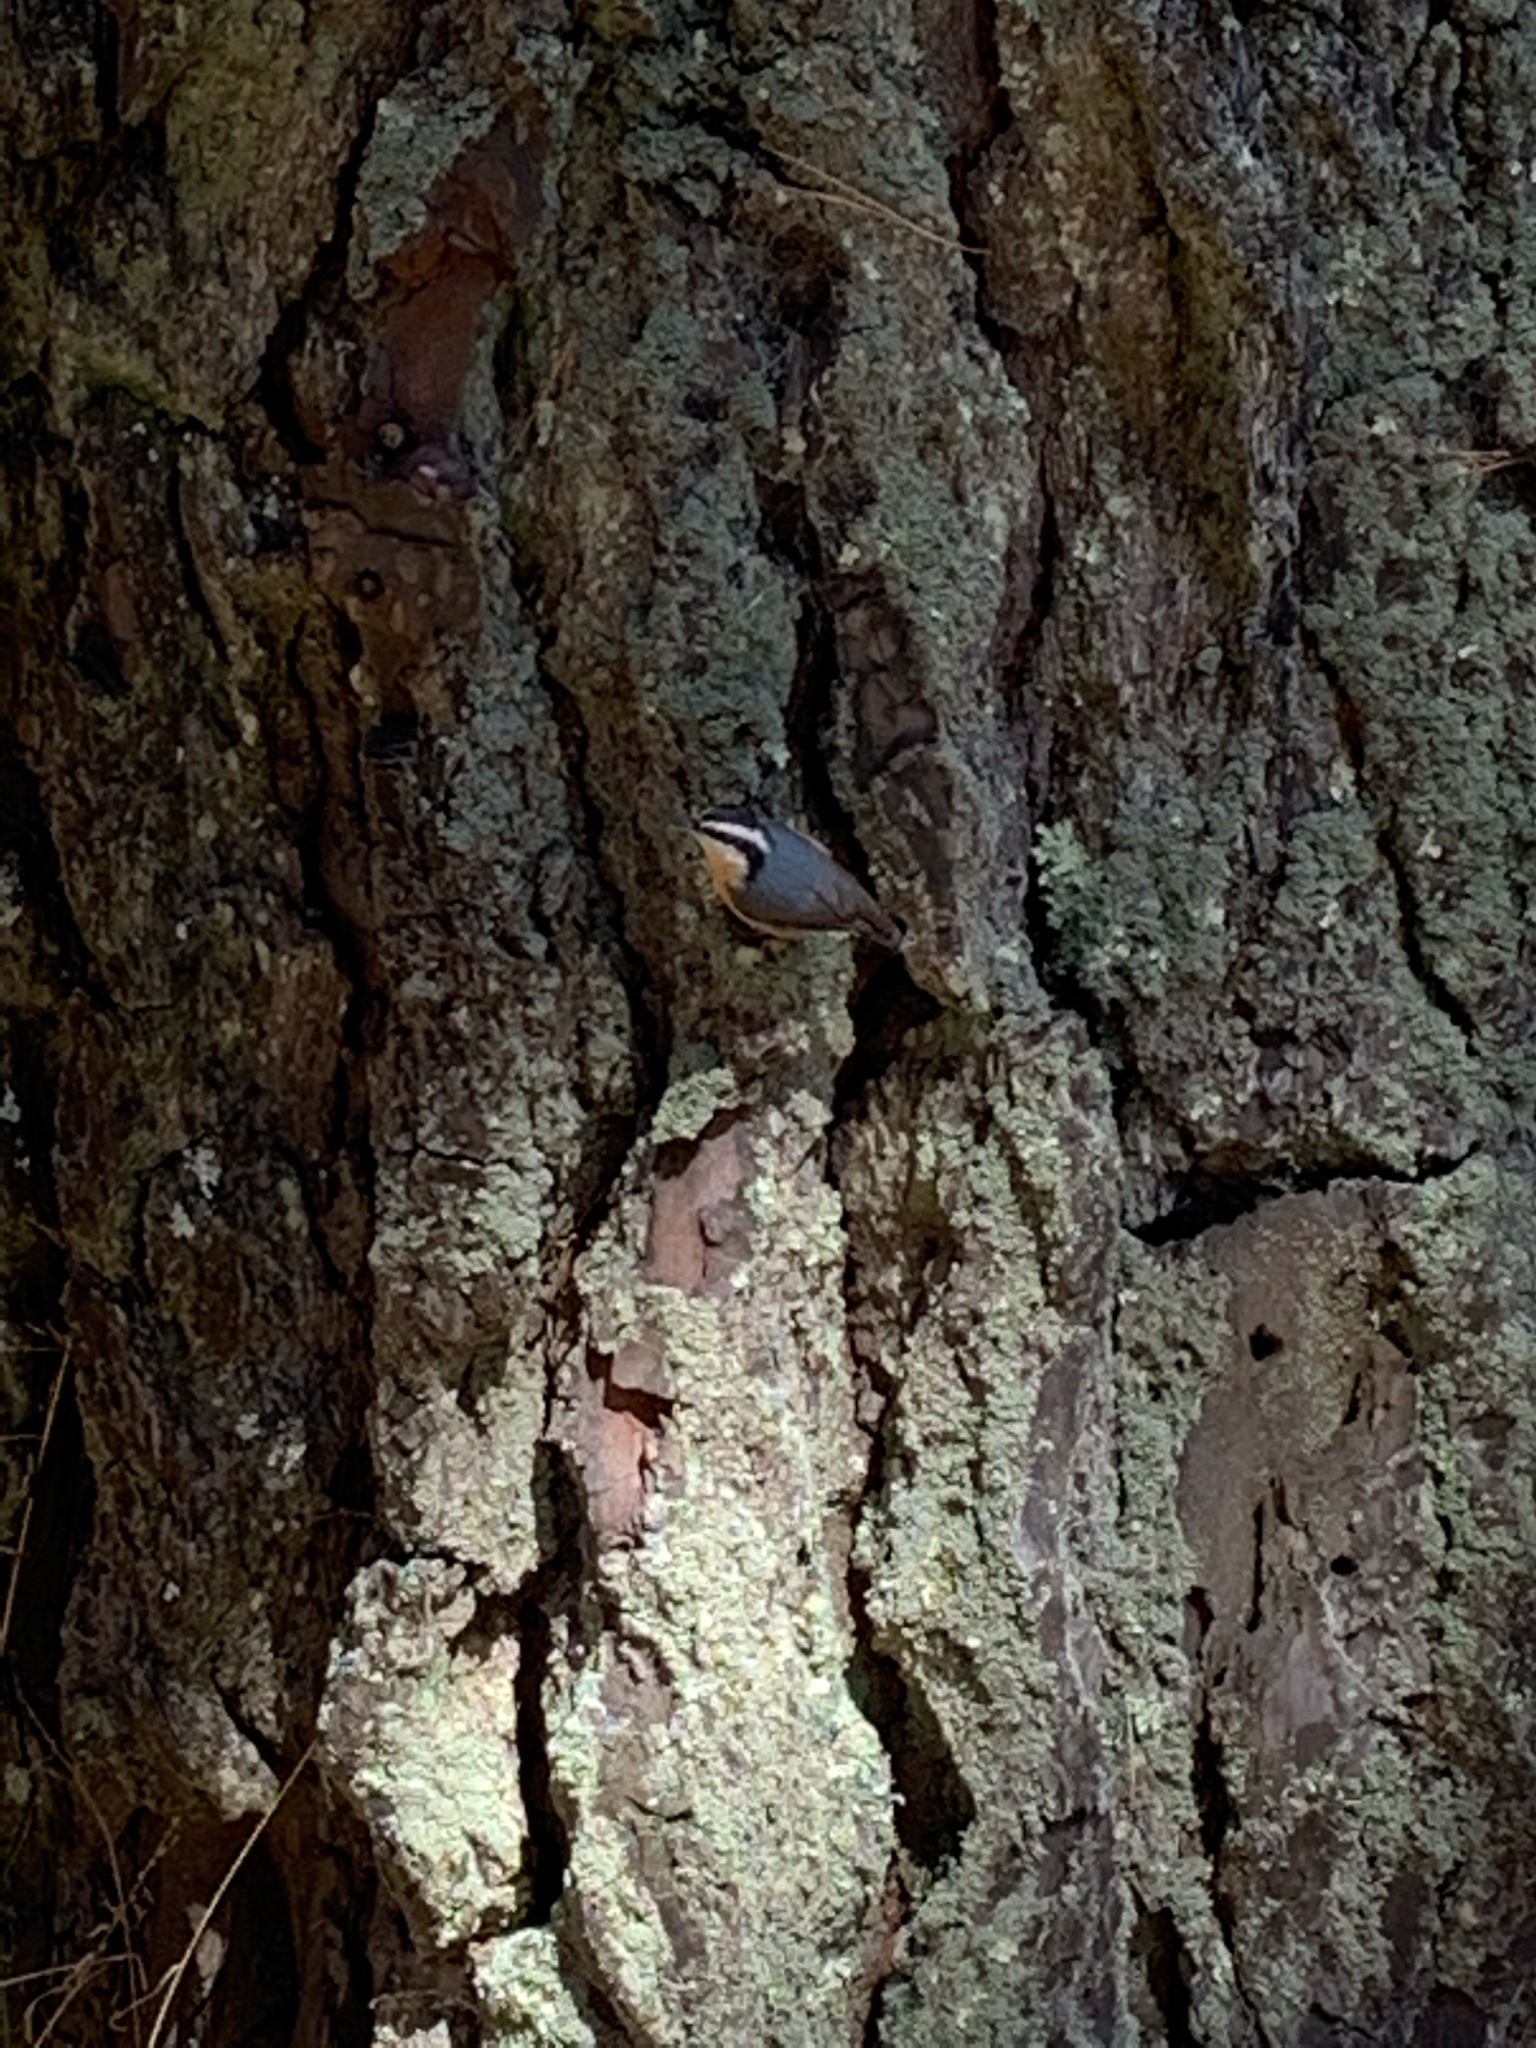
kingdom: Animalia
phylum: Chordata
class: Aves
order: Passeriformes
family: Sittidae
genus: Sitta
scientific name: Sitta canadensis
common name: Red-breasted nuthatch
